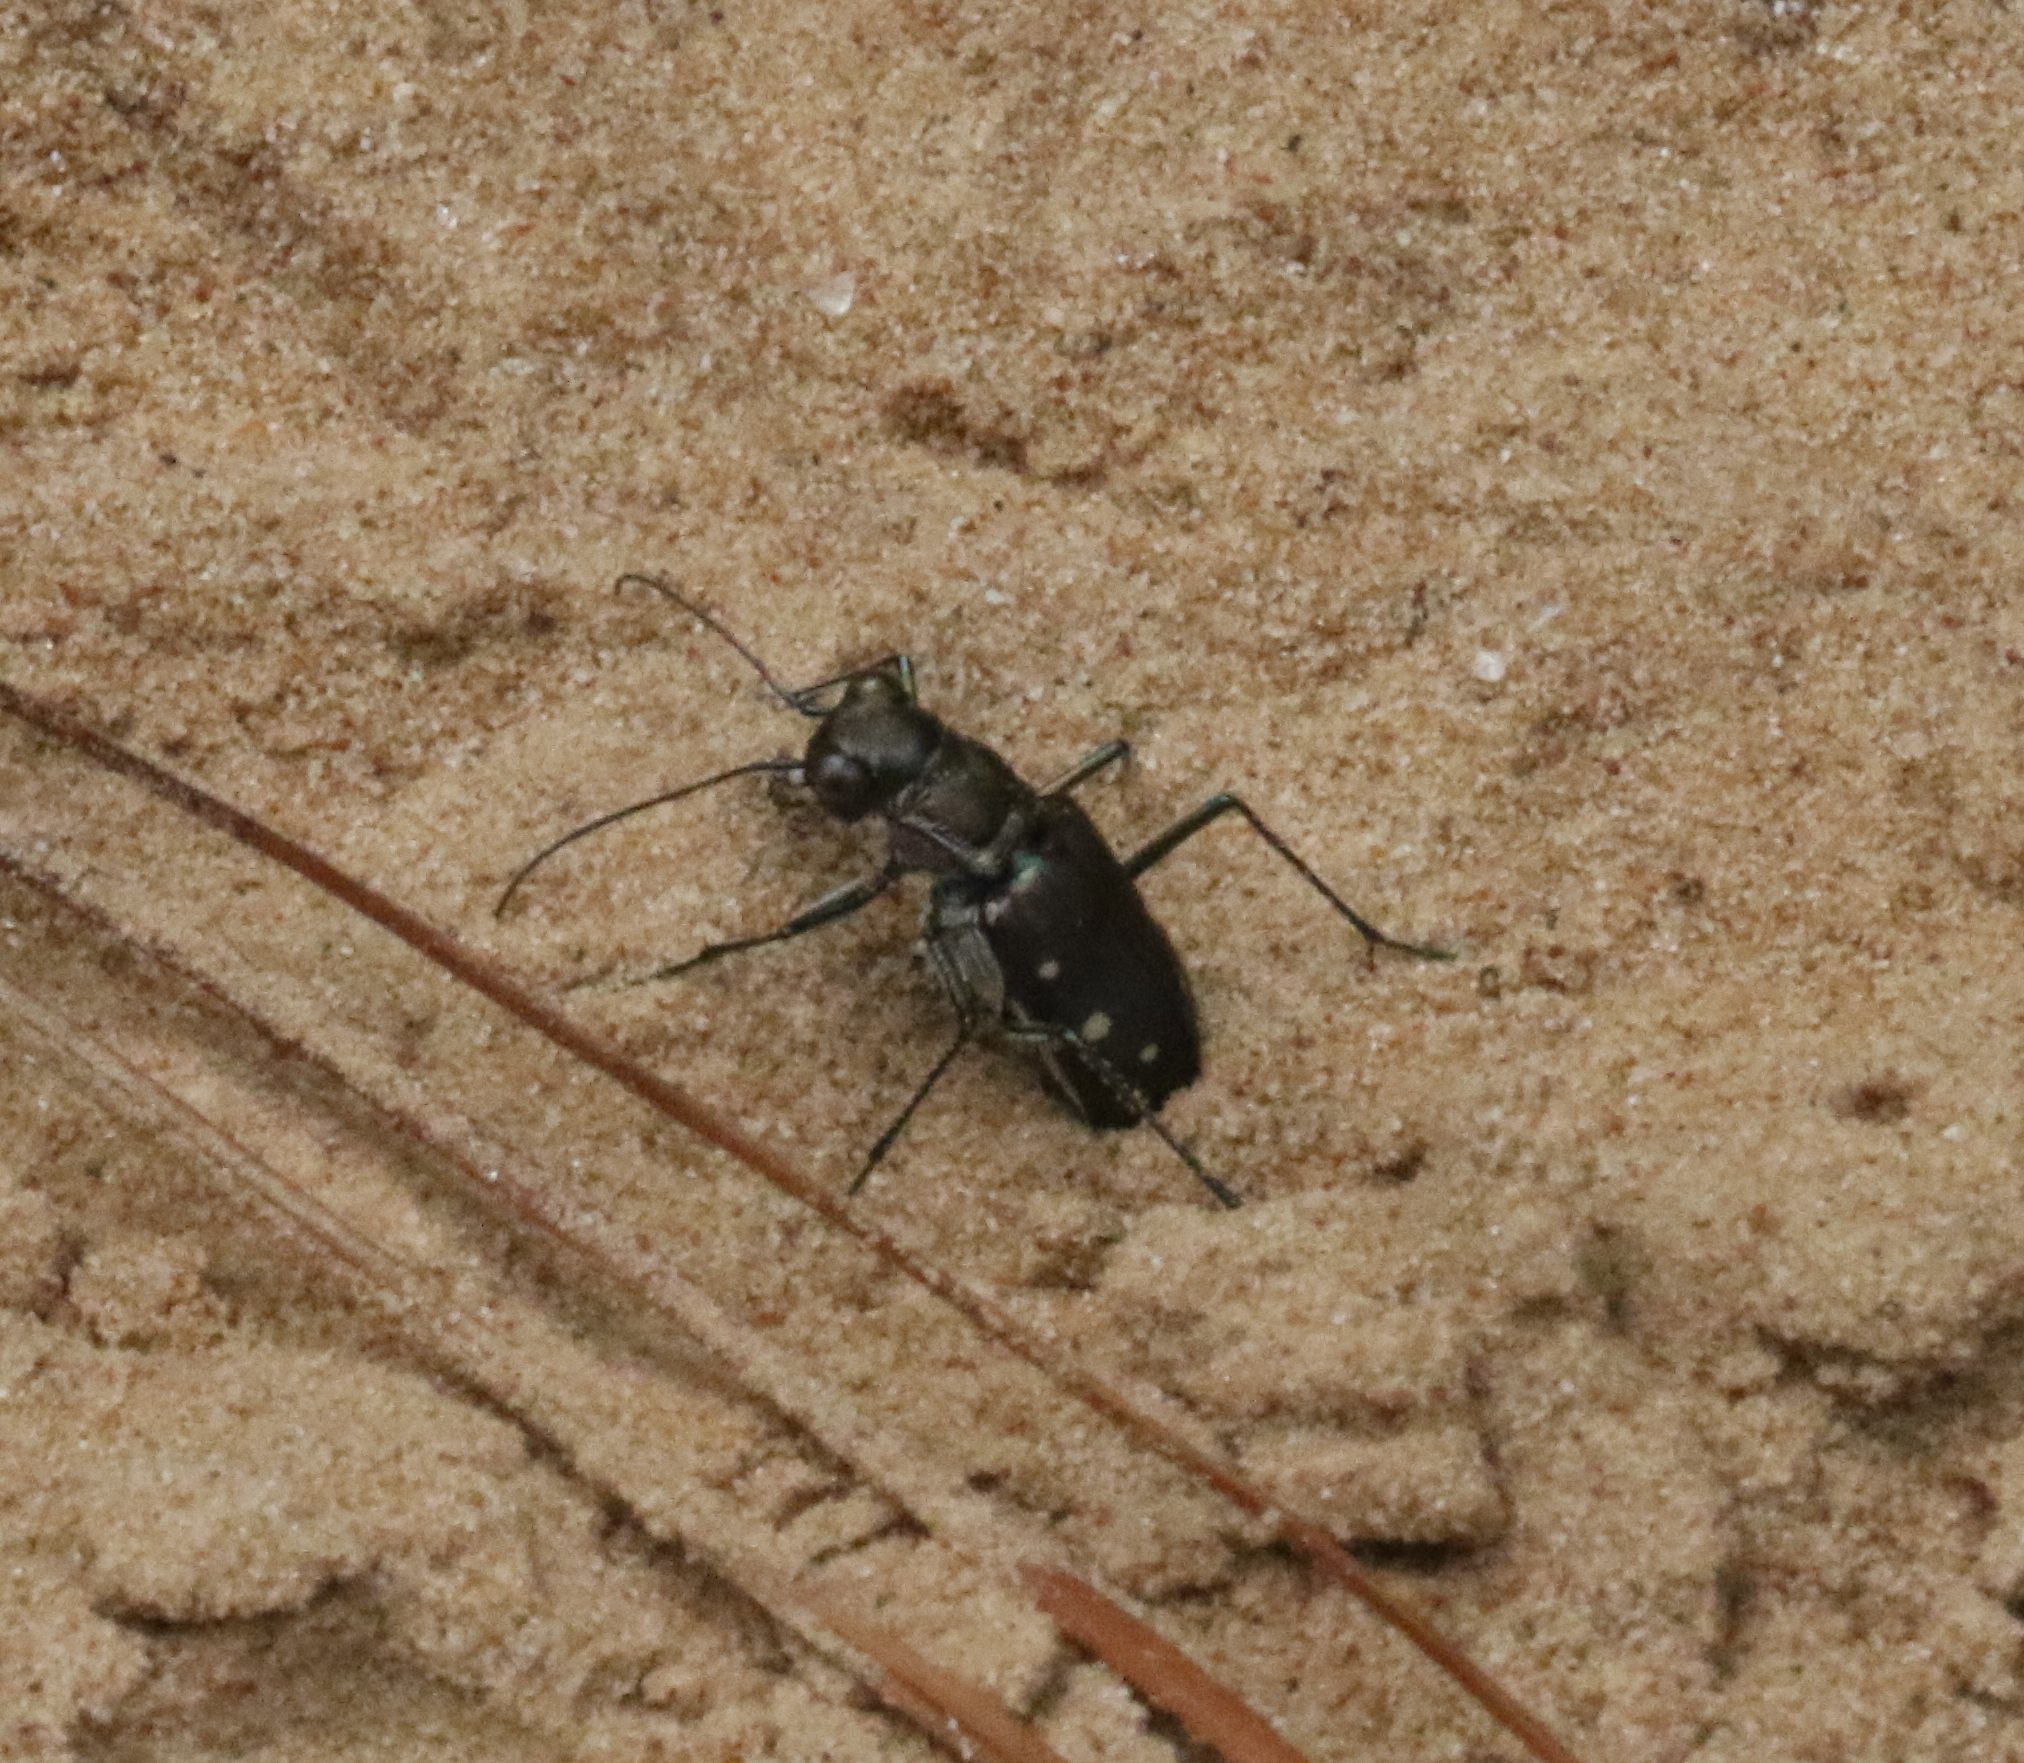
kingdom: Animalia
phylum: Arthropoda
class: Insecta
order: Coleoptera
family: Carabidae
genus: Cicindela
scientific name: Cicindela ocellata
